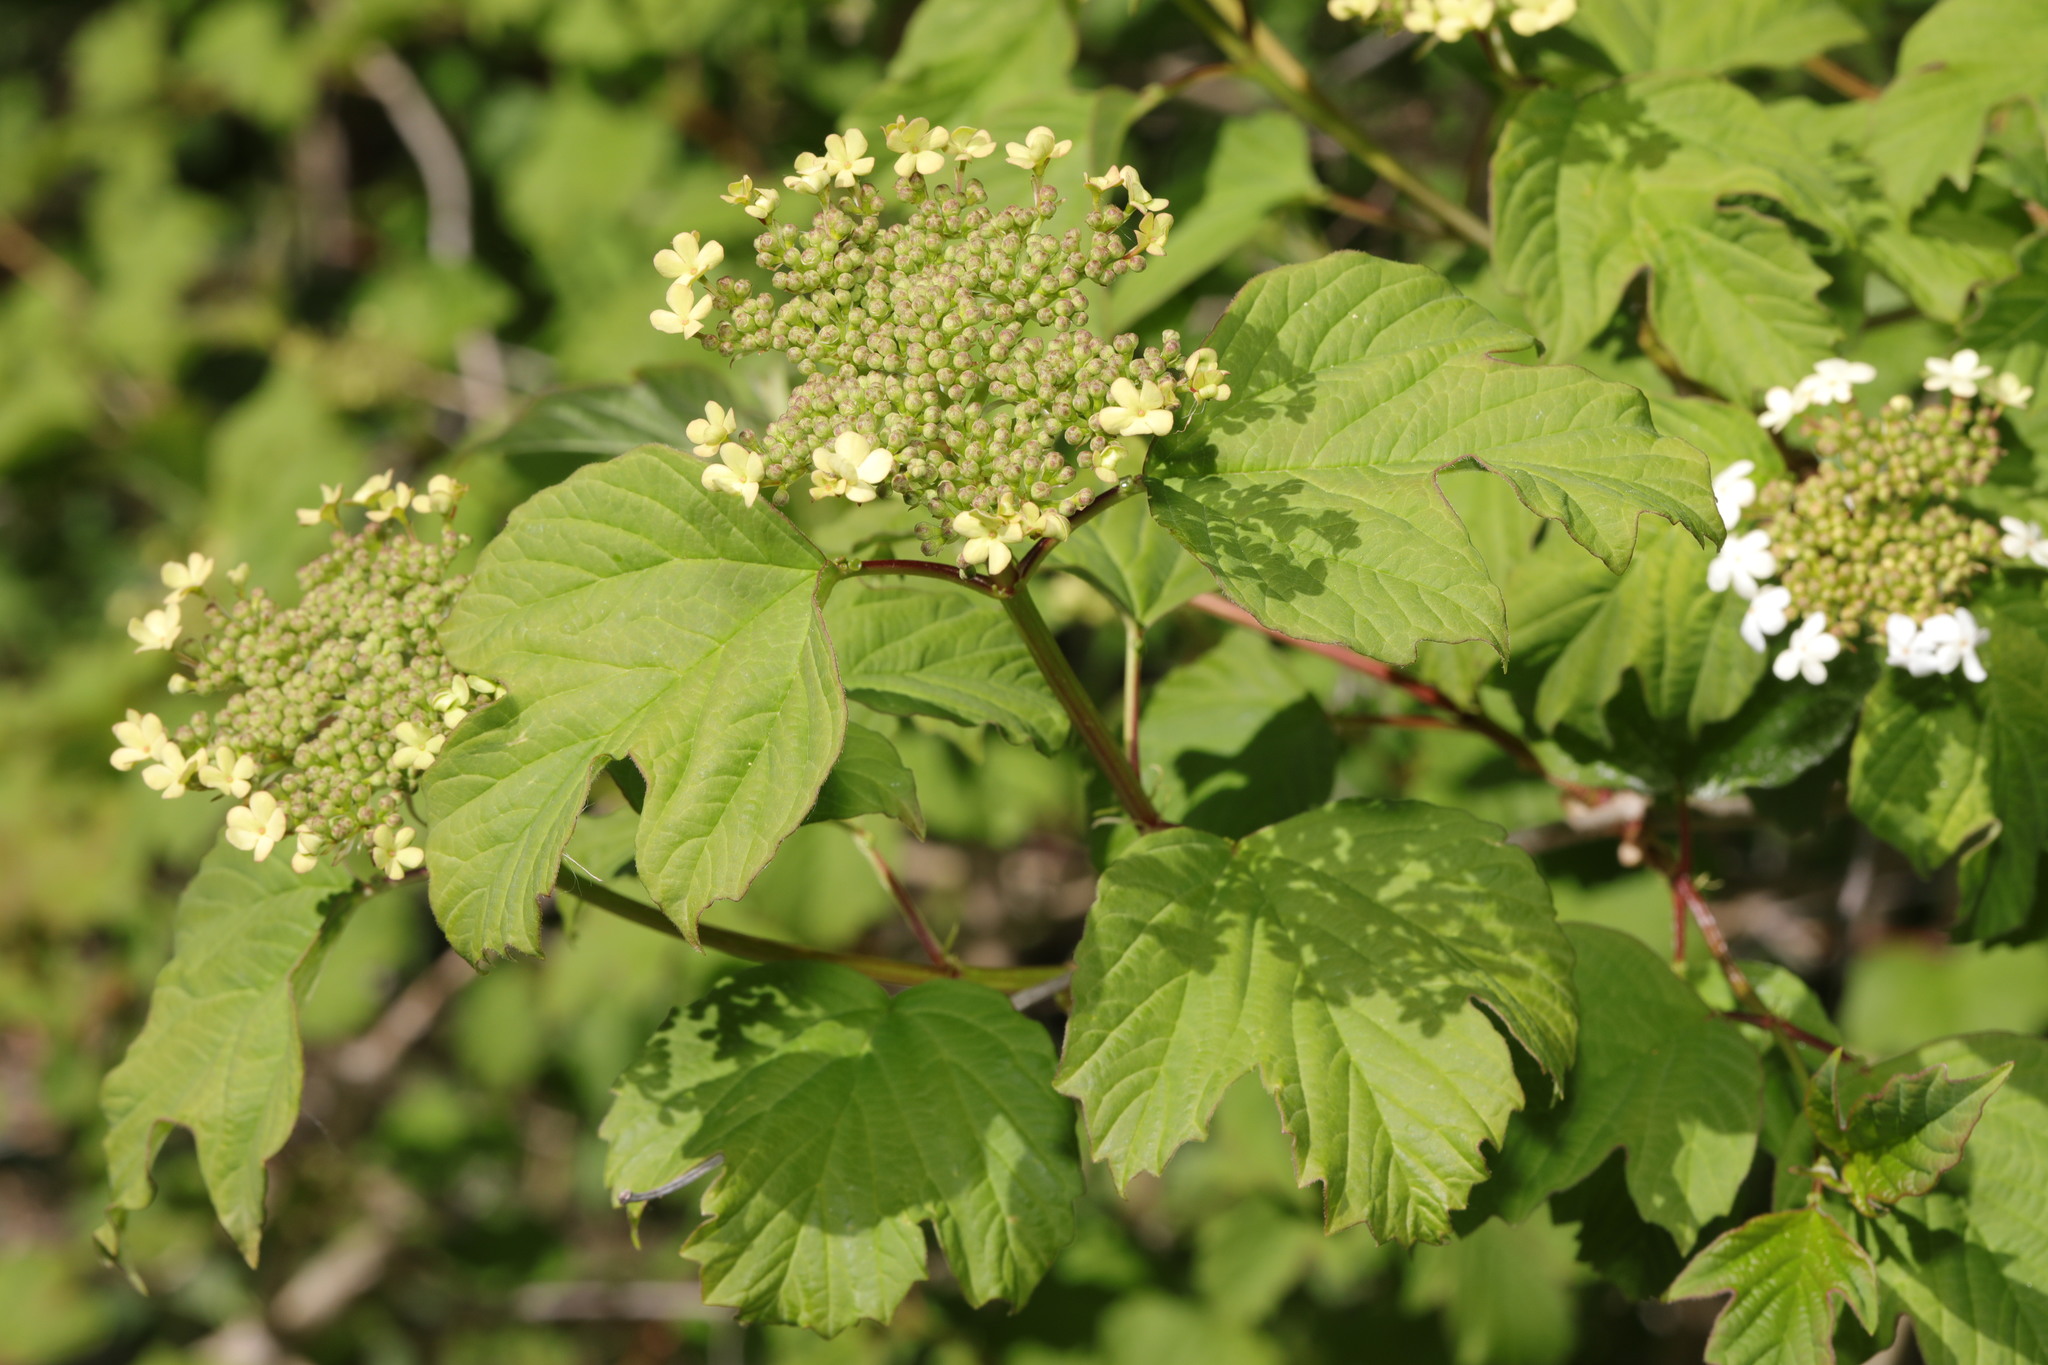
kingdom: Plantae
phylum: Tracheophyta
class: Magnoliopsida
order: Dipsacales
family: Viburnaceae
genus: Viburnum
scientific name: Viburnum opulus
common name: Guelder-rose
